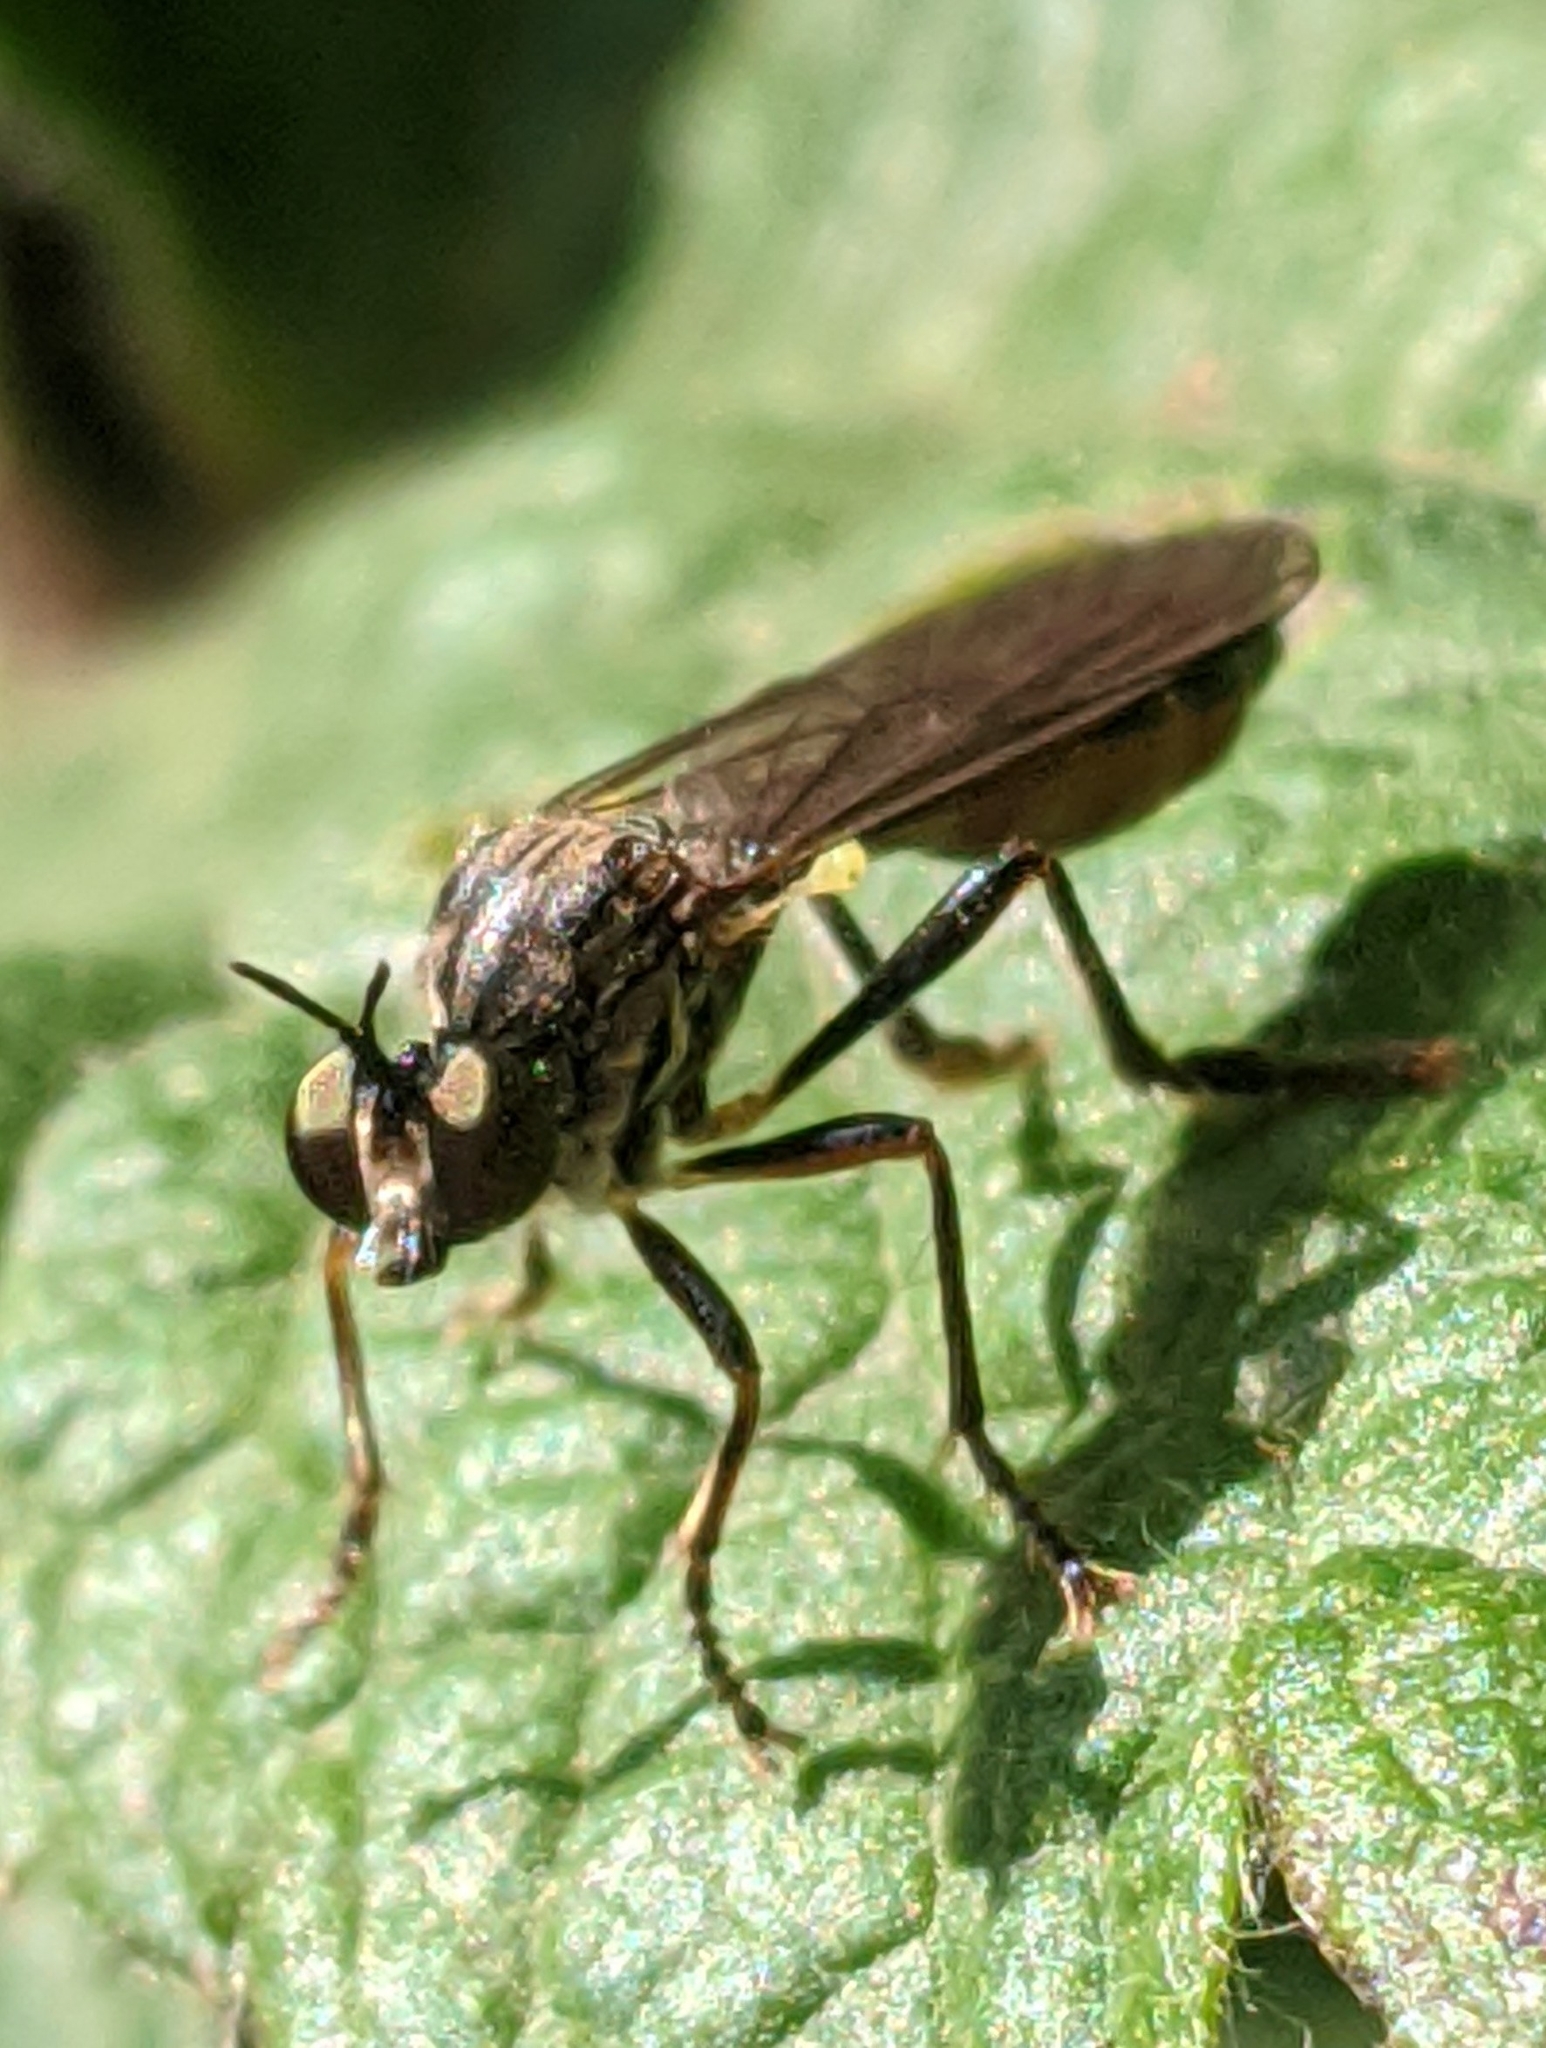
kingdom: Animalia
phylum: Arthropoda
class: Insecta
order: Diptera
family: Asilidae
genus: Dioctria
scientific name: Dioctria hyalipennis
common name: Stripe-legged robberfly
